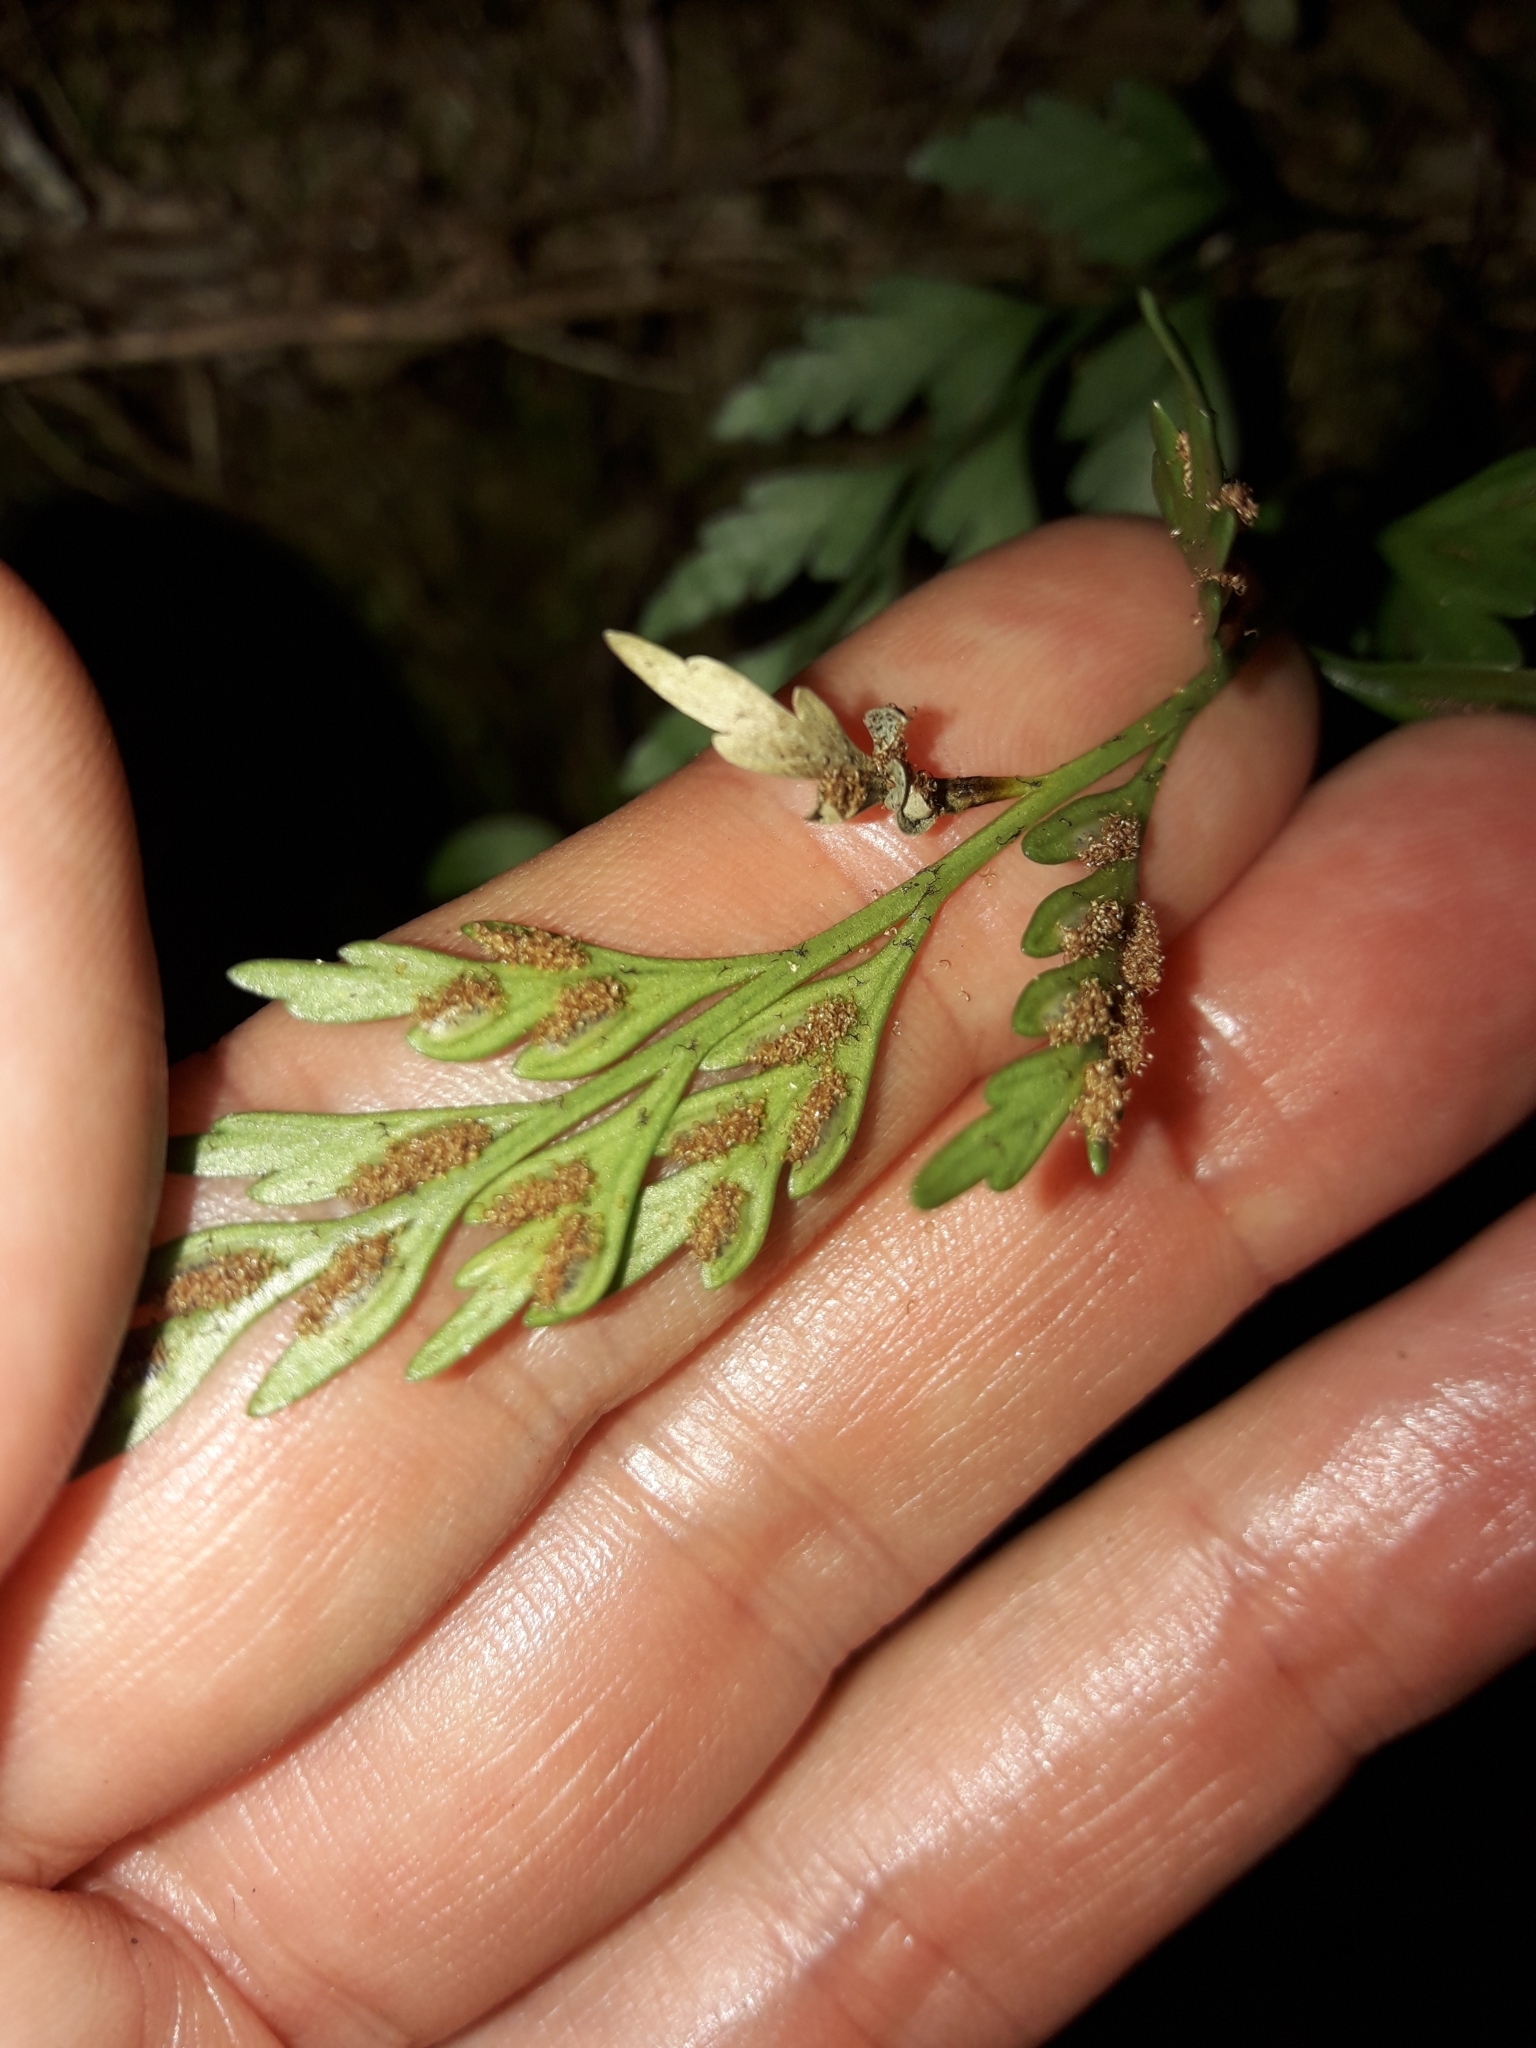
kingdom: Plantae
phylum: Tracheophyta
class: Polypodiopsida
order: Polypodiales
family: Aspleniaceae
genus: Asplenium
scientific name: Asplenium appendiculatum
